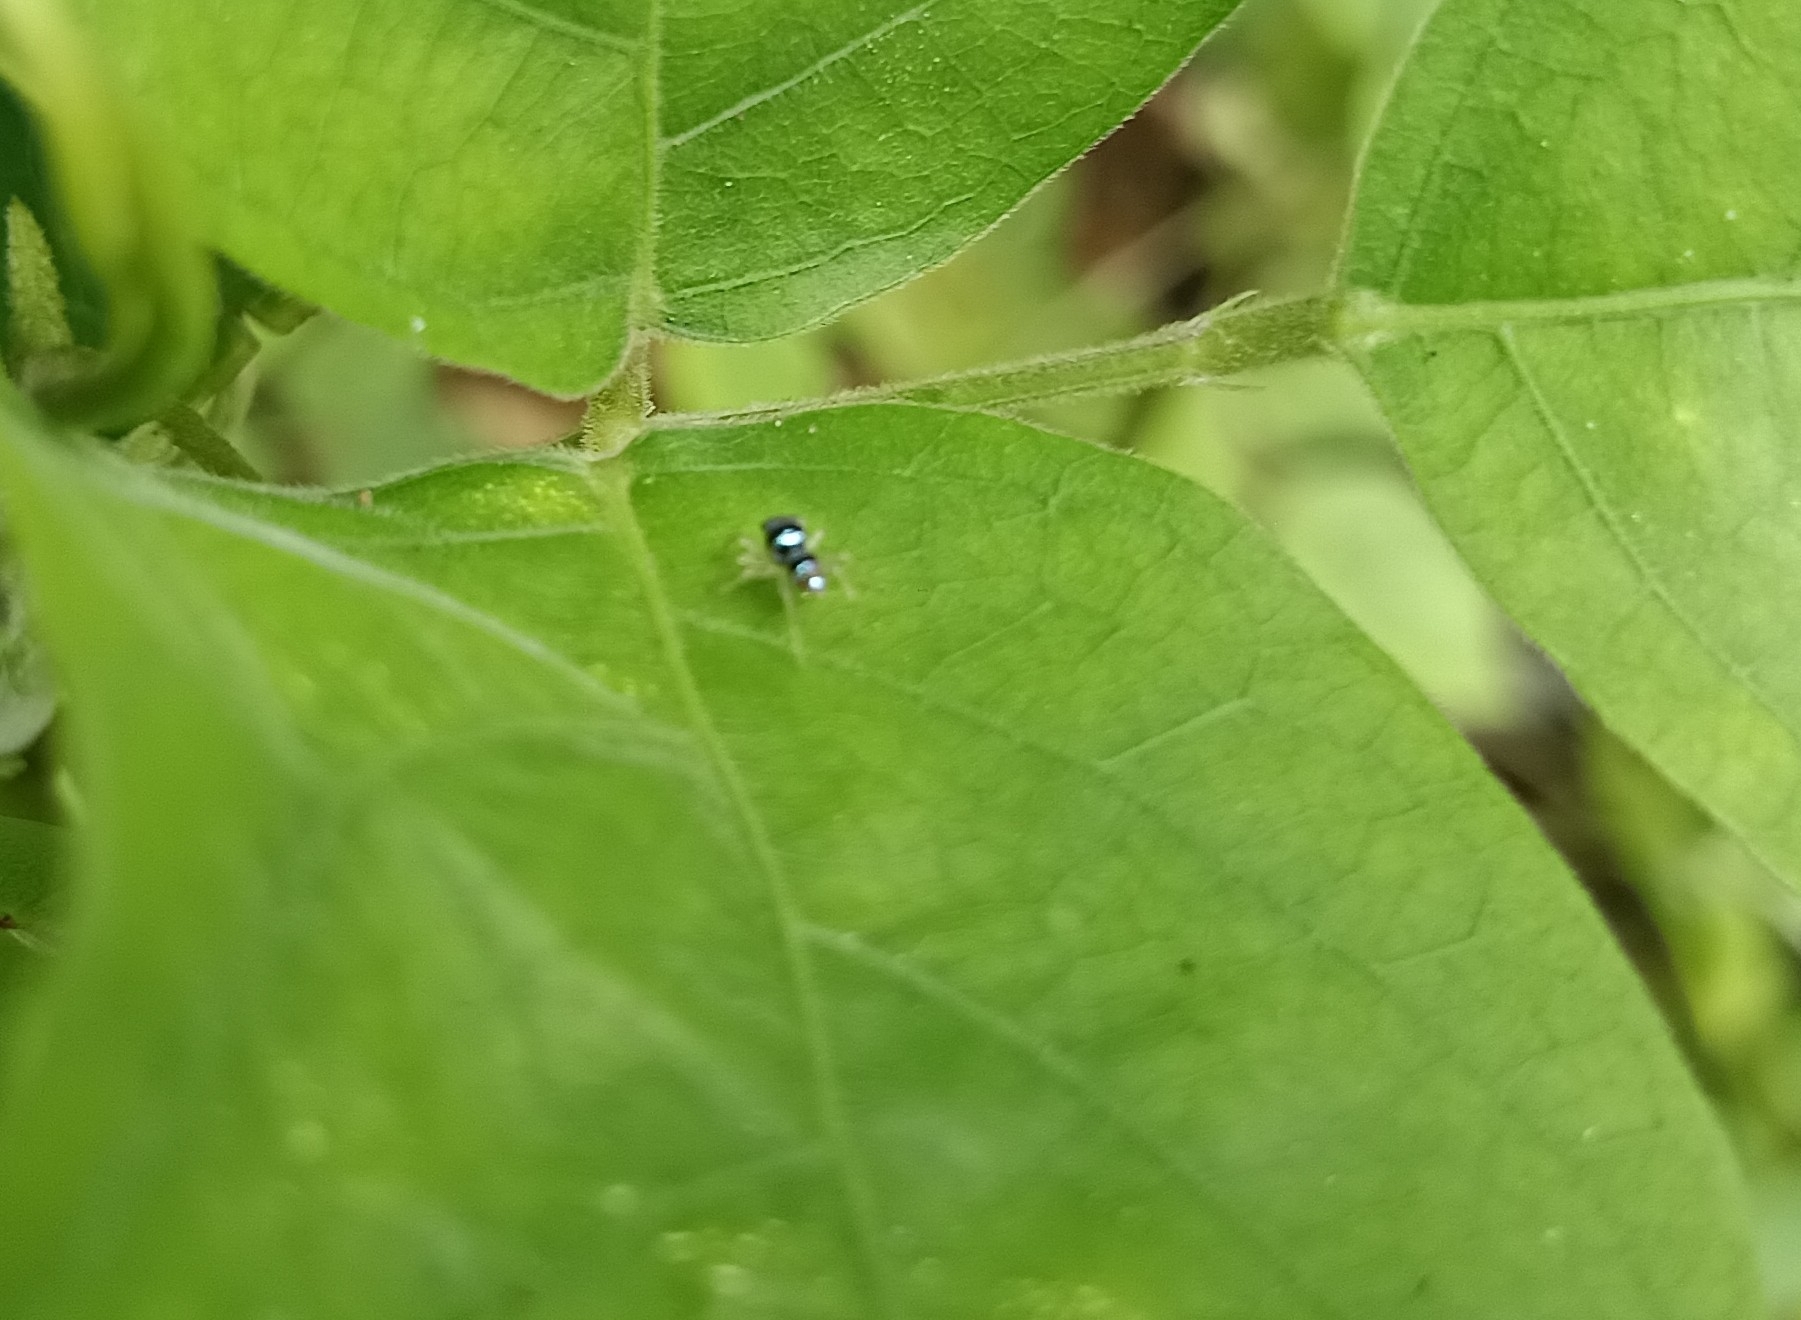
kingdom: Animalia
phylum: Arthropoda
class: Arachnida
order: Araneae
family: Salticidae
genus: Phintella
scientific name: Phintella vittata
